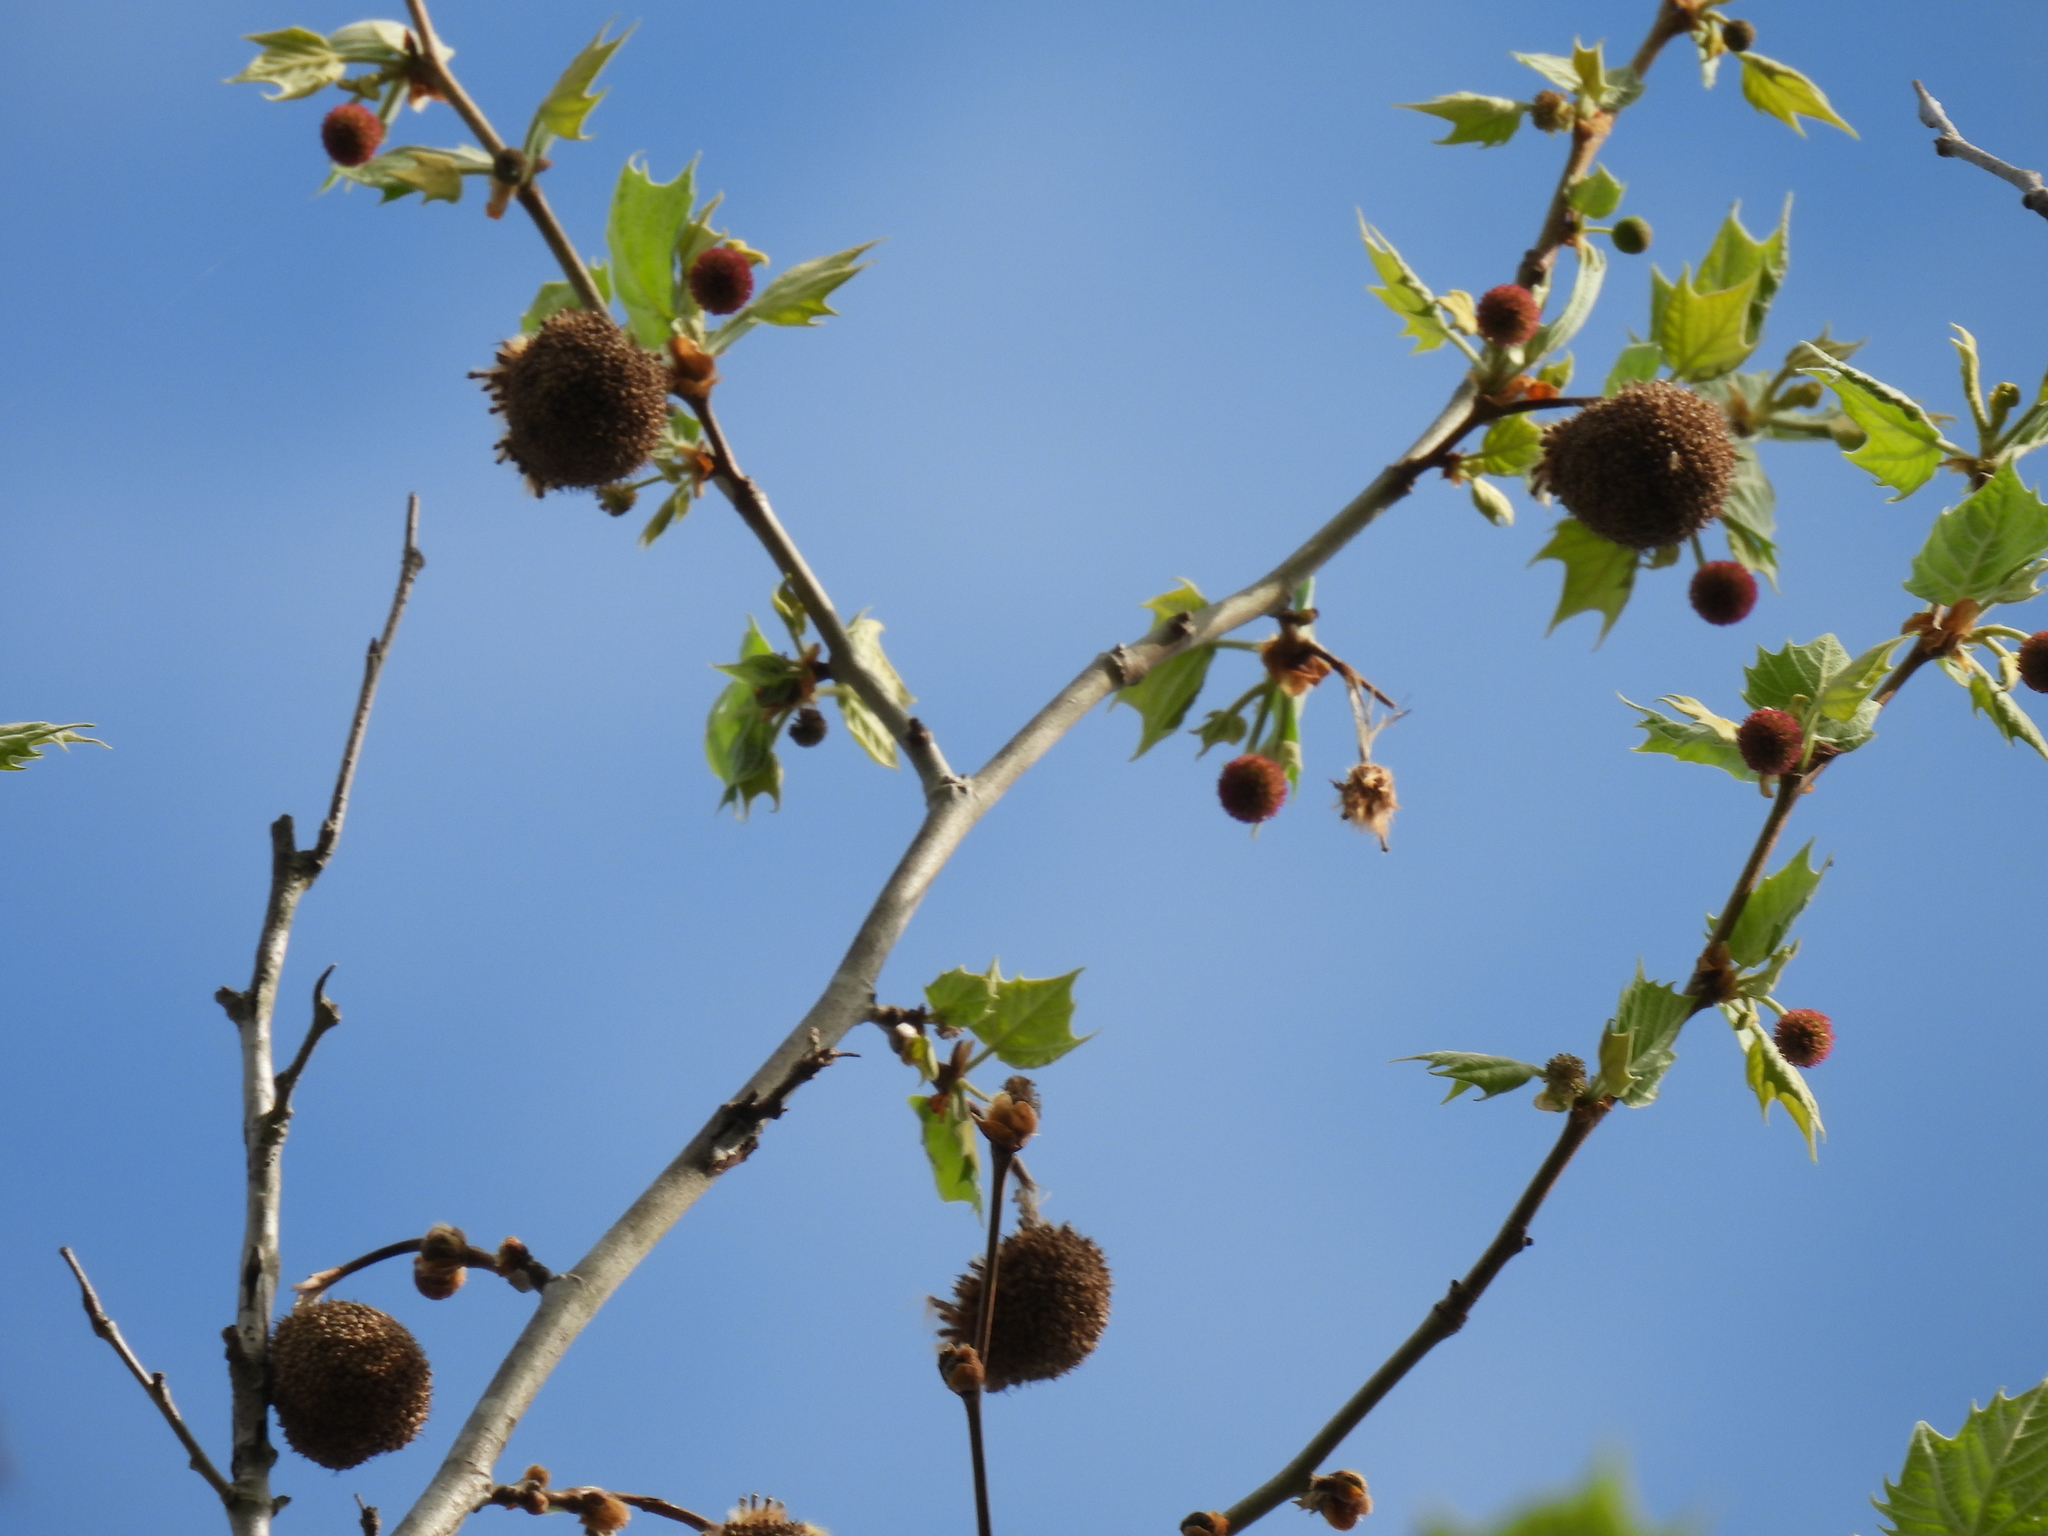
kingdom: Plantae
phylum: Tracheophyta
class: Magnoliopsida
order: Proteales
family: Platanaceae
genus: Platanus
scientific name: Platanus occidentalis
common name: American sycamore
